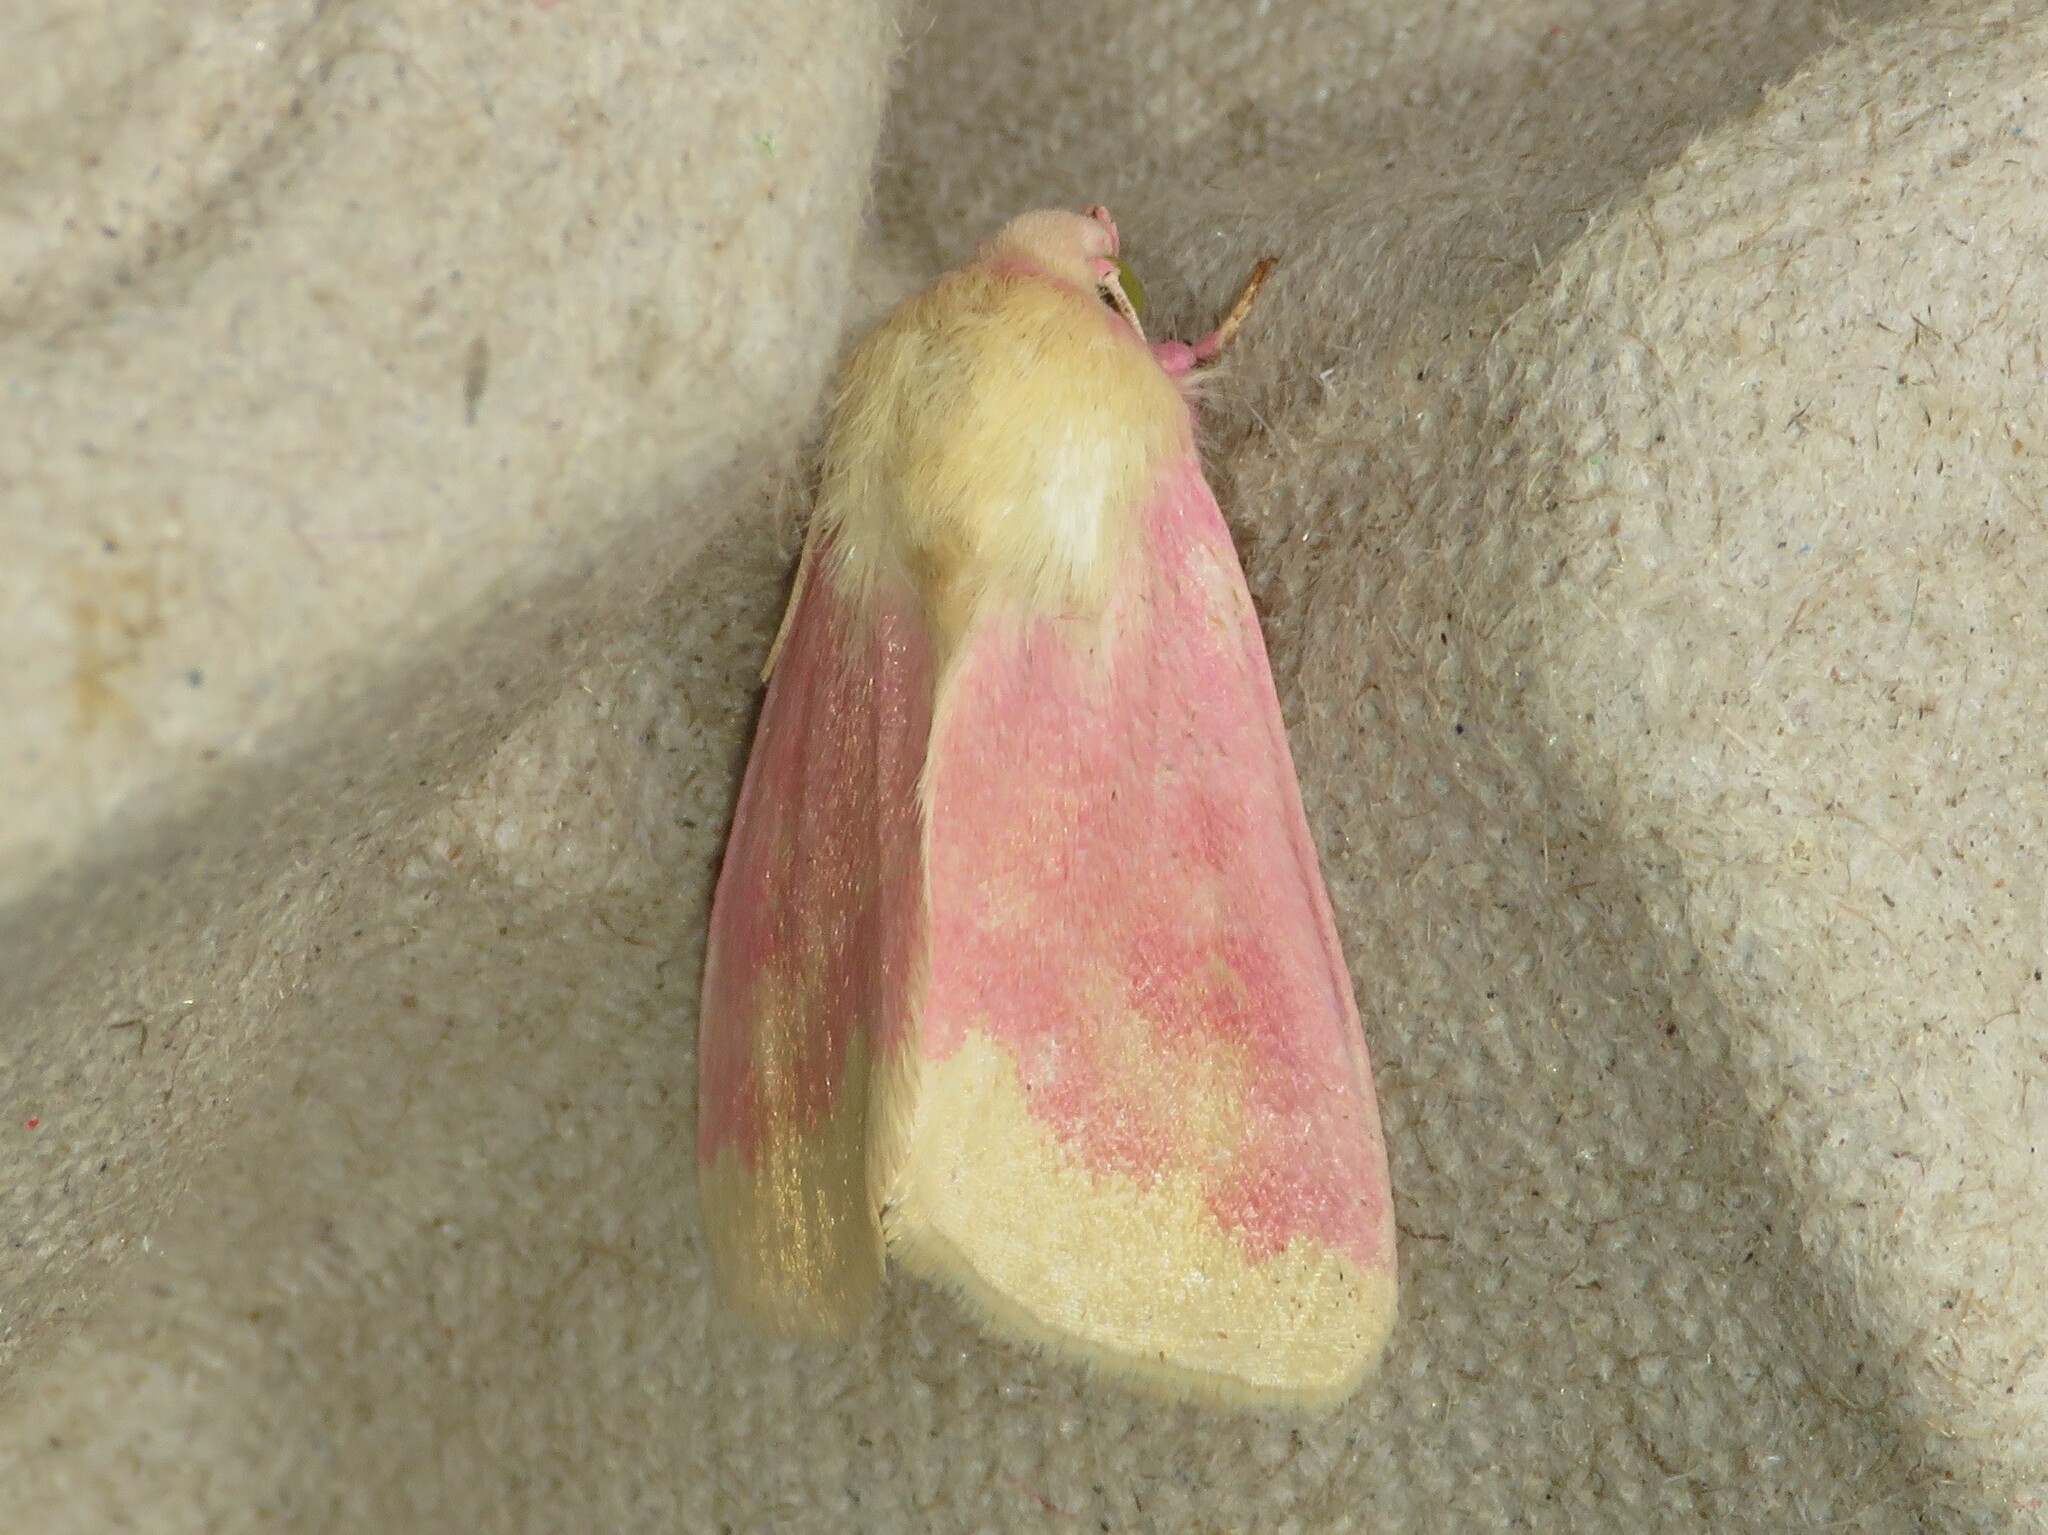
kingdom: Animalia
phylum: Arthropoda
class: Insecta
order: Lepidoptera
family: Noctuidae
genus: Schinia
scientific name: Schinia florida
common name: Primrose moth
